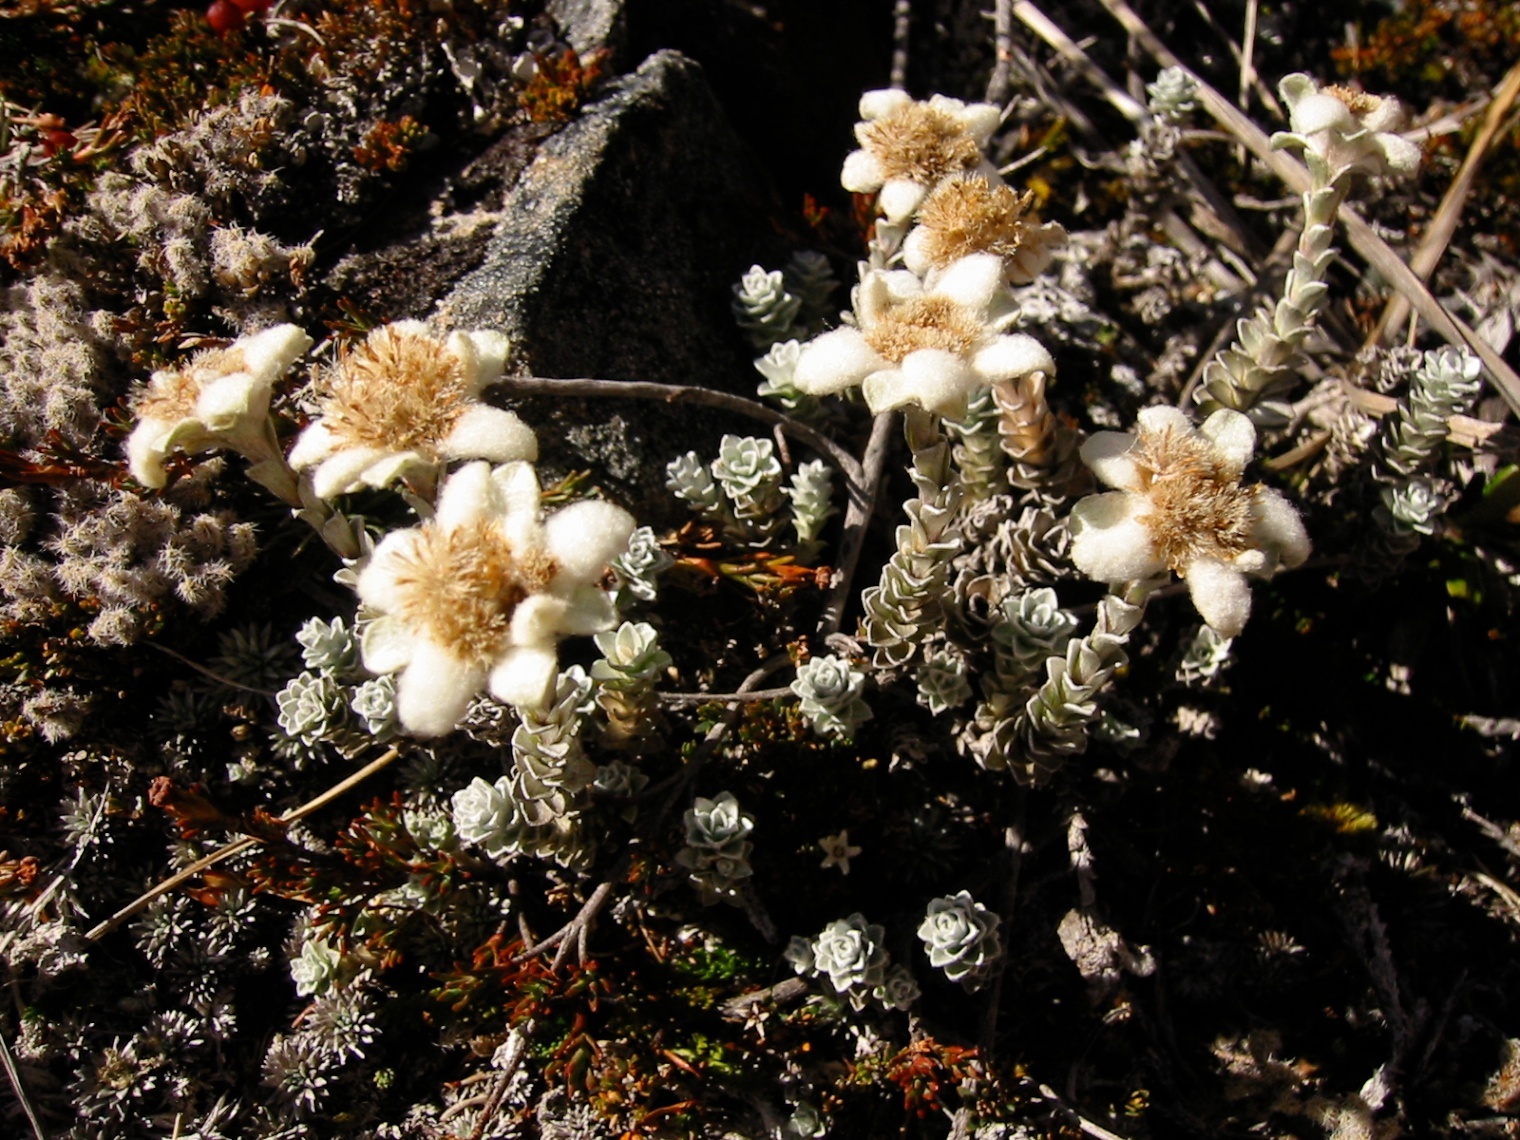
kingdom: Plantae
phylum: Tracheophyta
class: Magnoliopsida
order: Asterales
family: Asteraceae
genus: Leucogenes
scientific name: Leucogenes grandiceps
